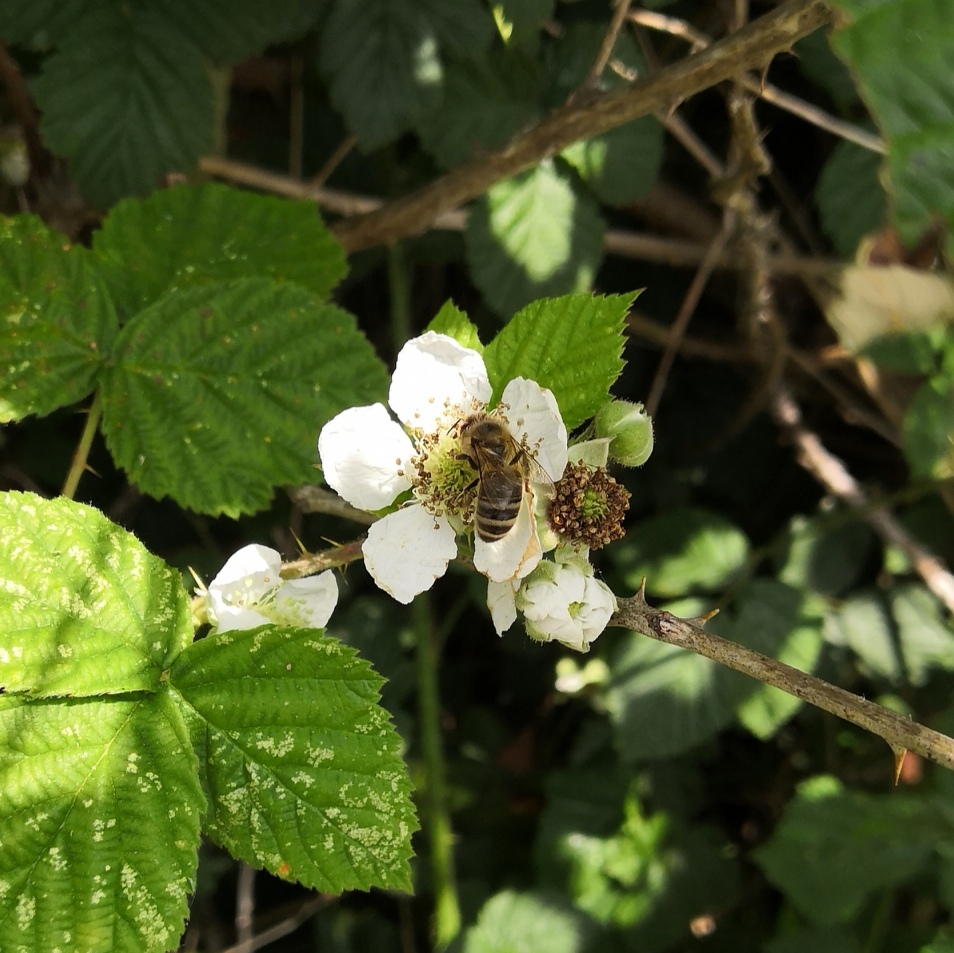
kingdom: Animalia
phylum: Arthropoda
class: Insecta
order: Hymenoptera
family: Apidae
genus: Apis
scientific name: Apis mellifera
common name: Honey bee
